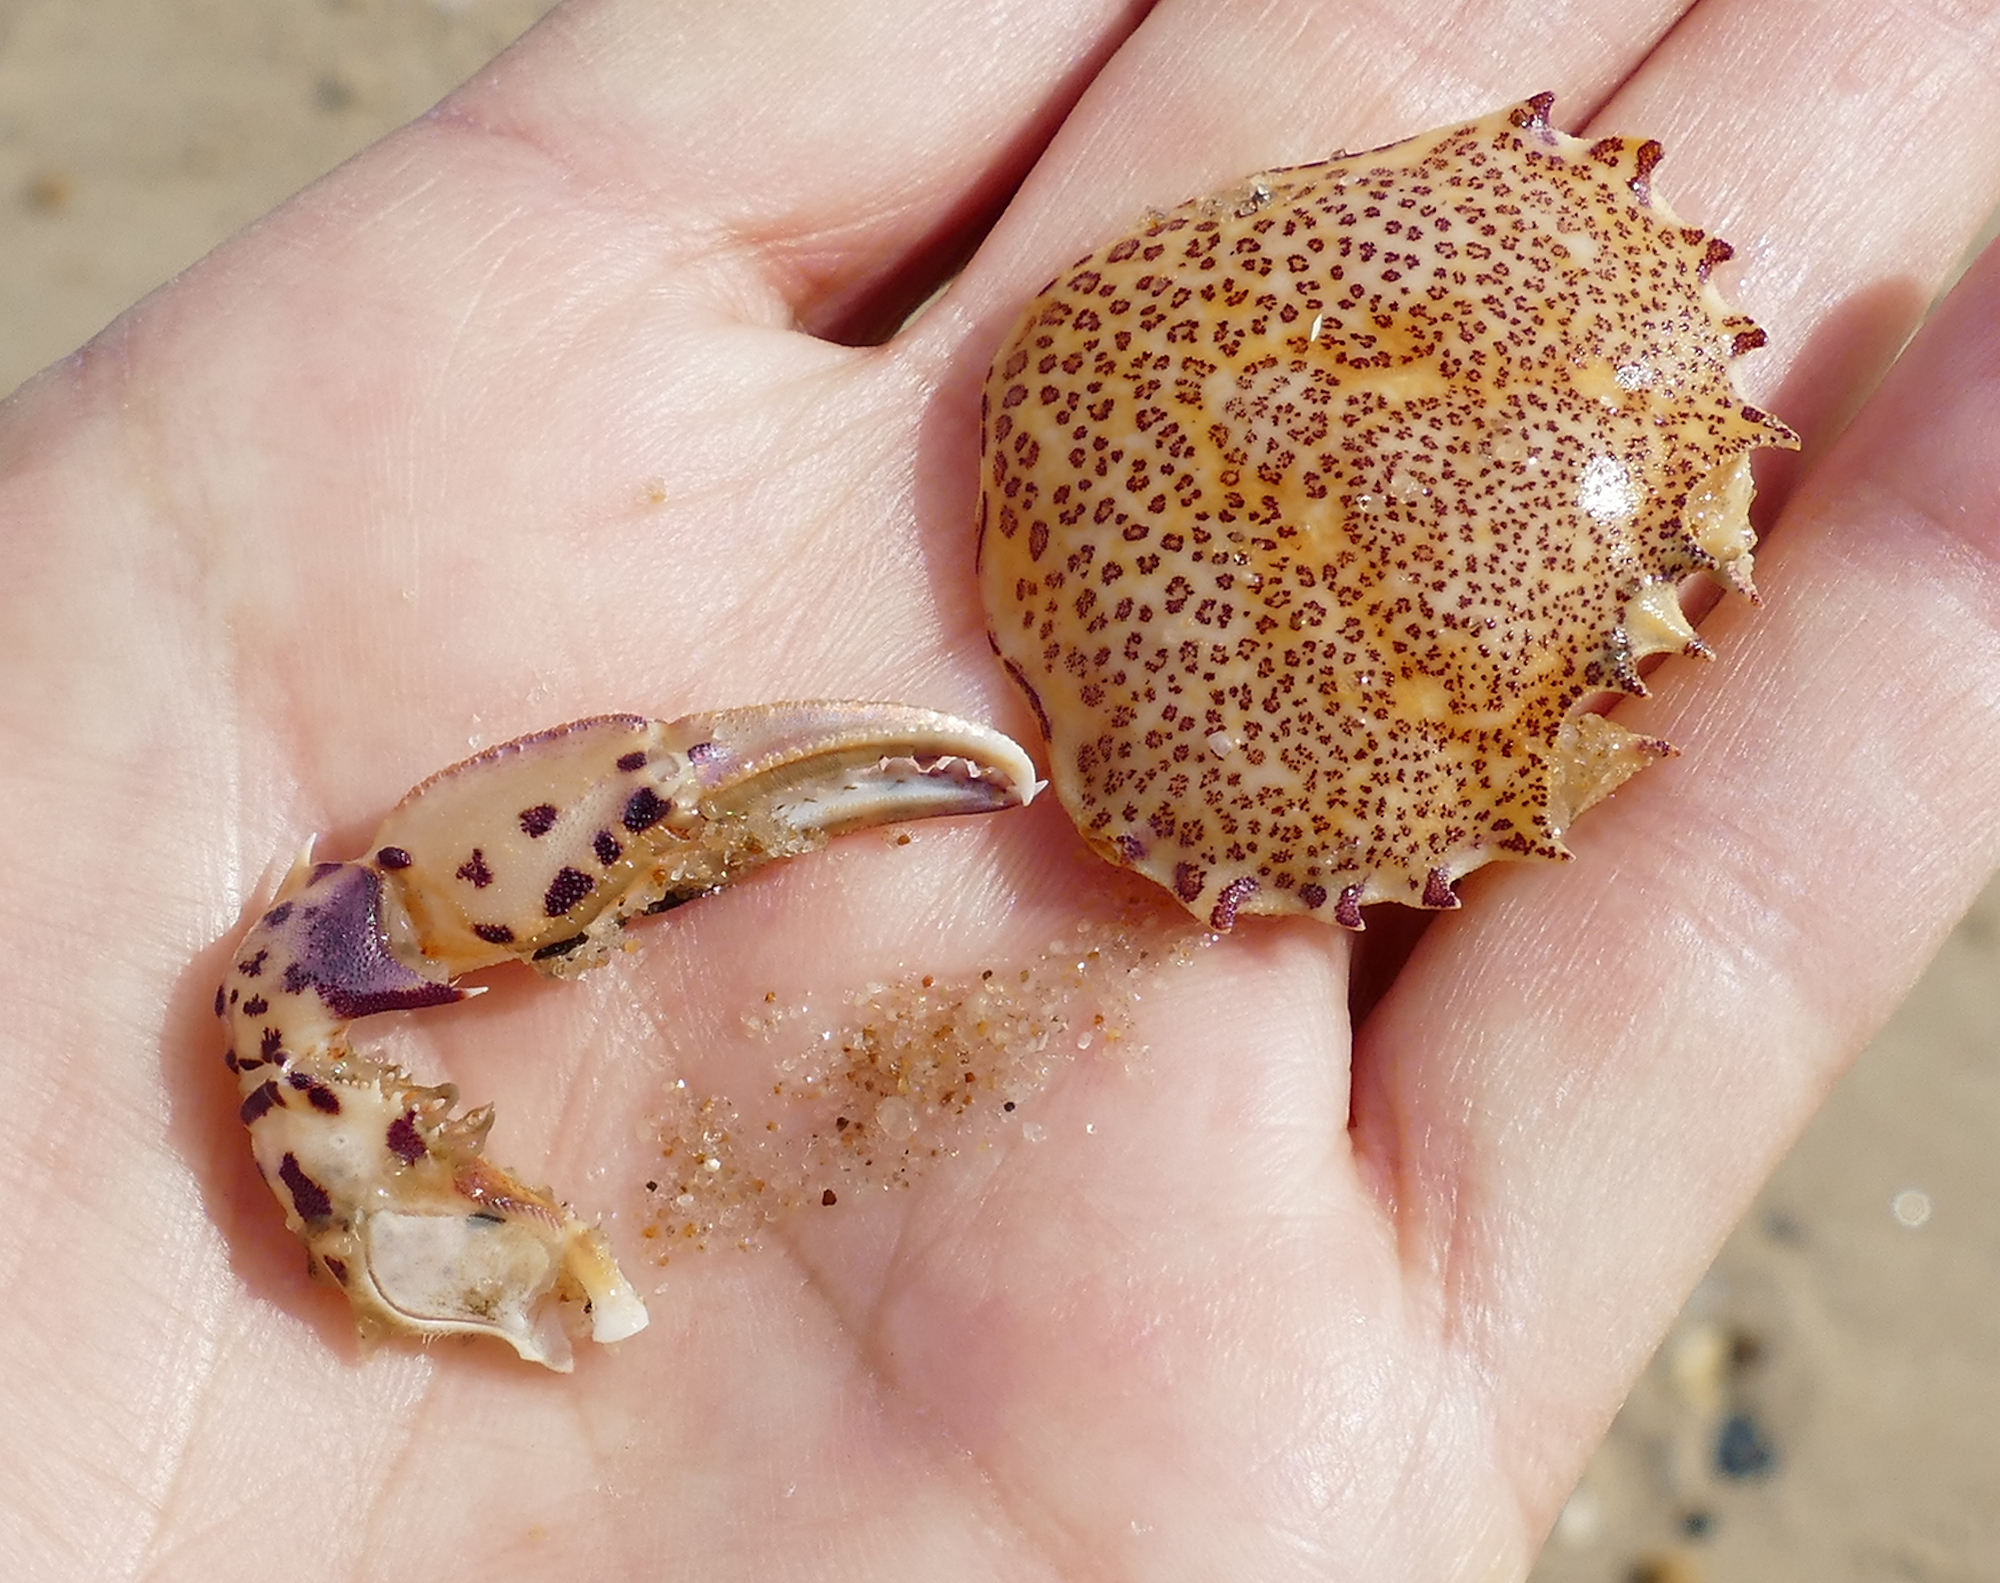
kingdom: Animalia
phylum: Arthropoda
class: Malacostraca
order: Decapoda
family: Ovalipidae
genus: Ovalipes
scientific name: Ovalipes ocellatus
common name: Lady crab
